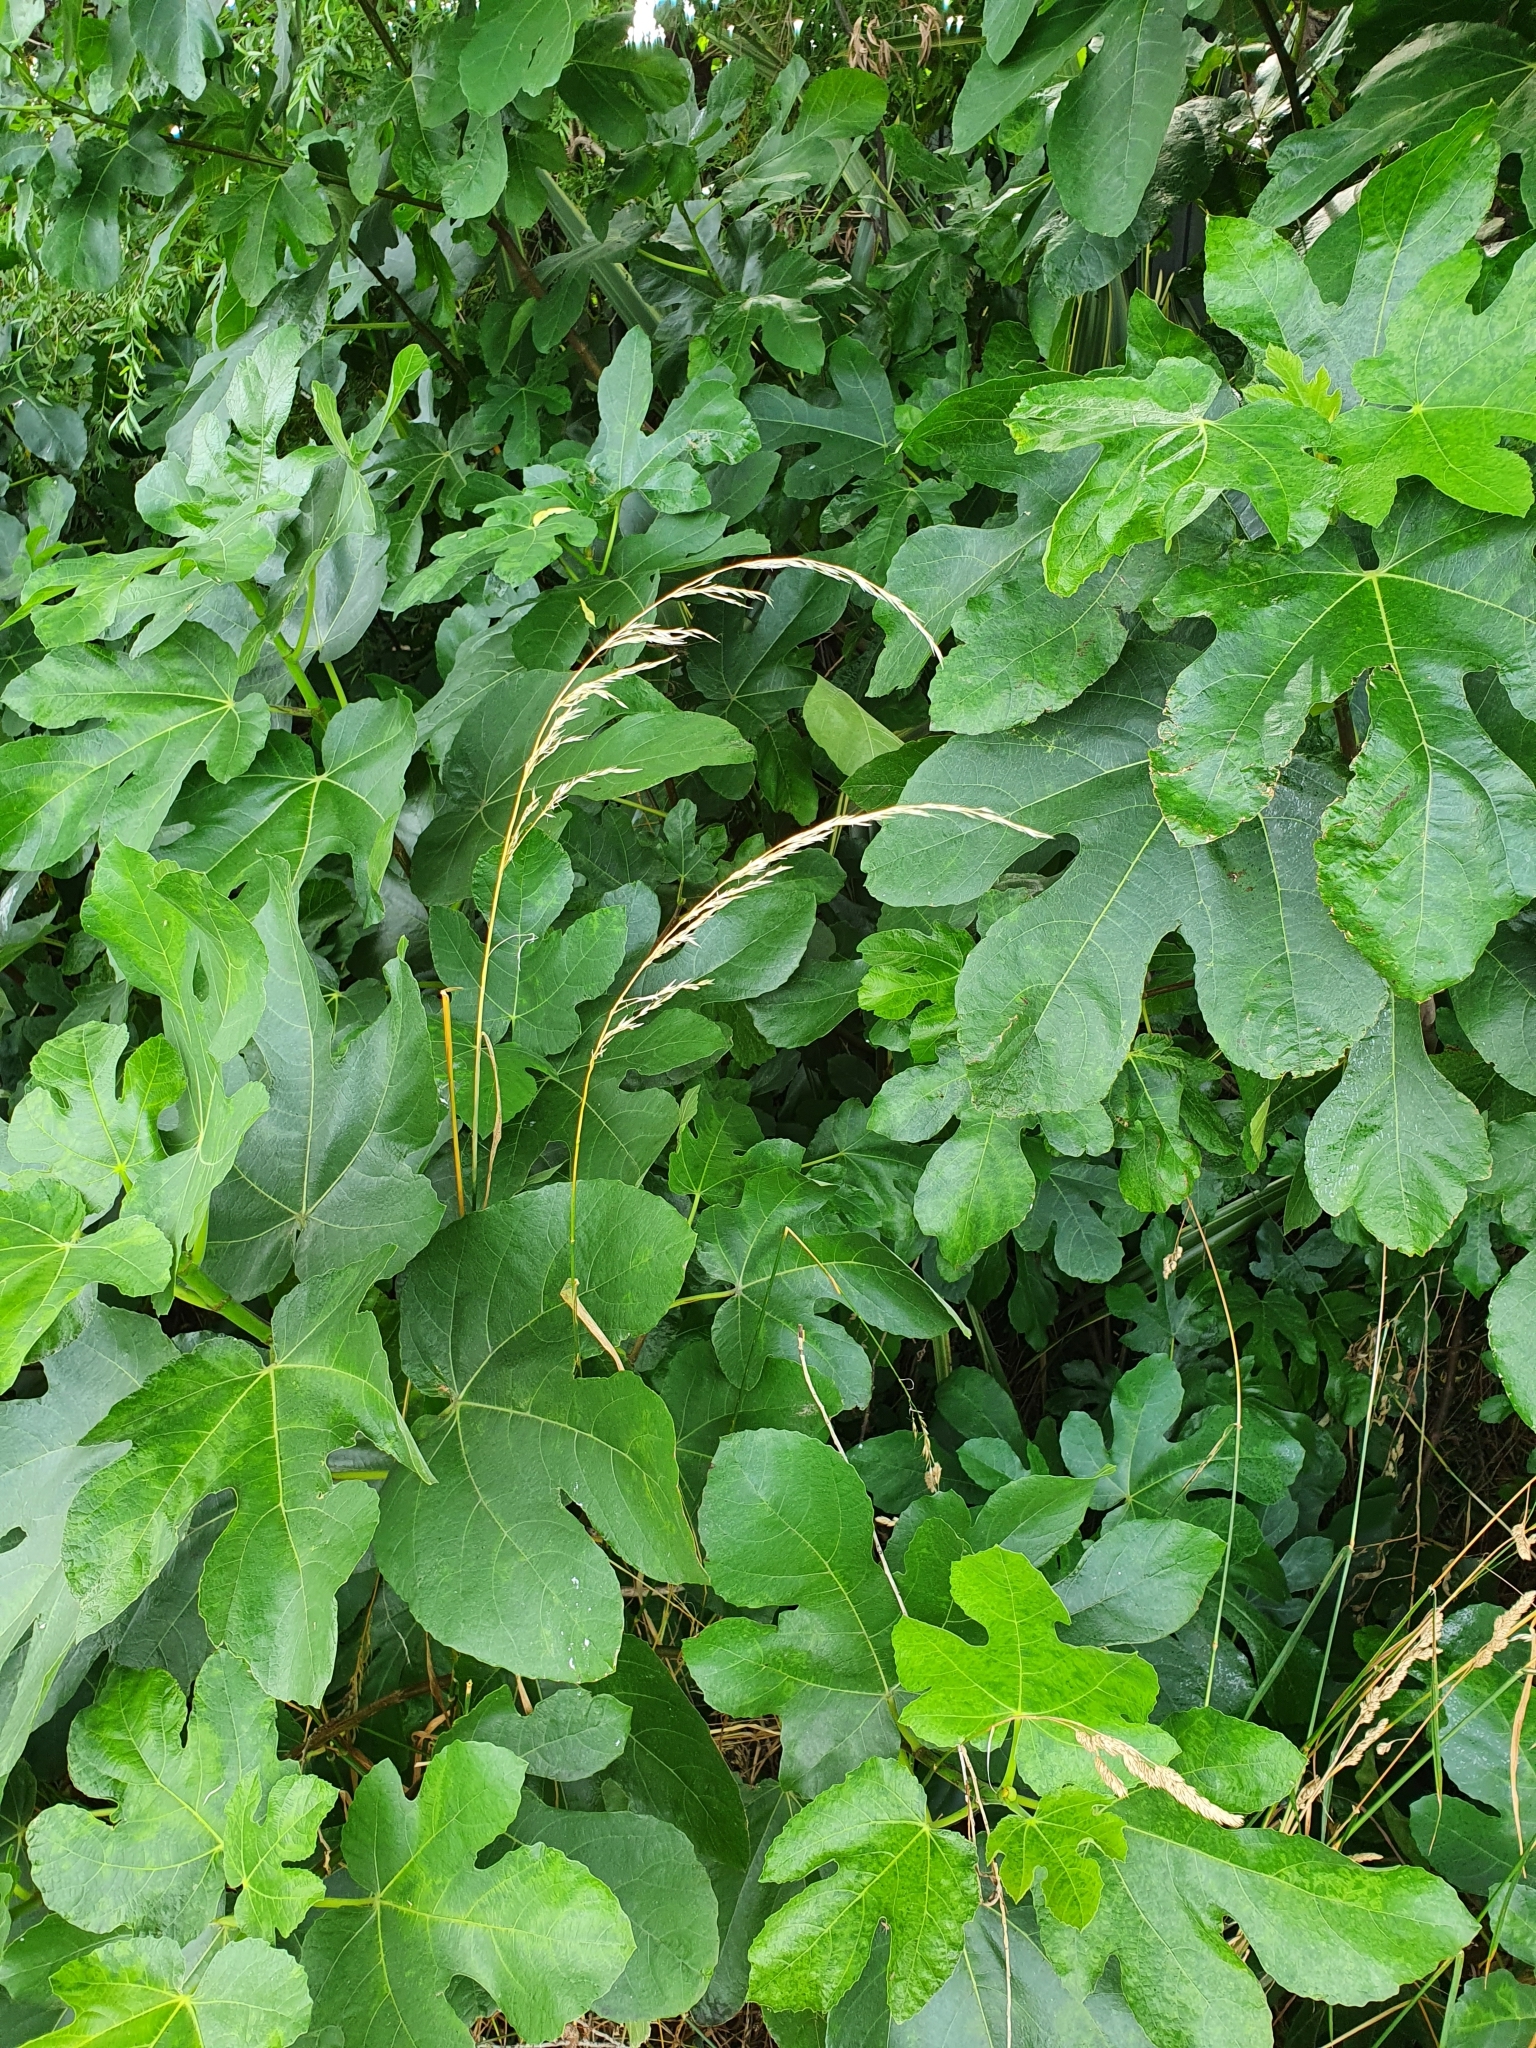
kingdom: Plantae
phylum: Tracheophyta
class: Magnoliopsida
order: Rosales
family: Moraceae
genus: Ficus
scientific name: Ficus carica
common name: Fig
